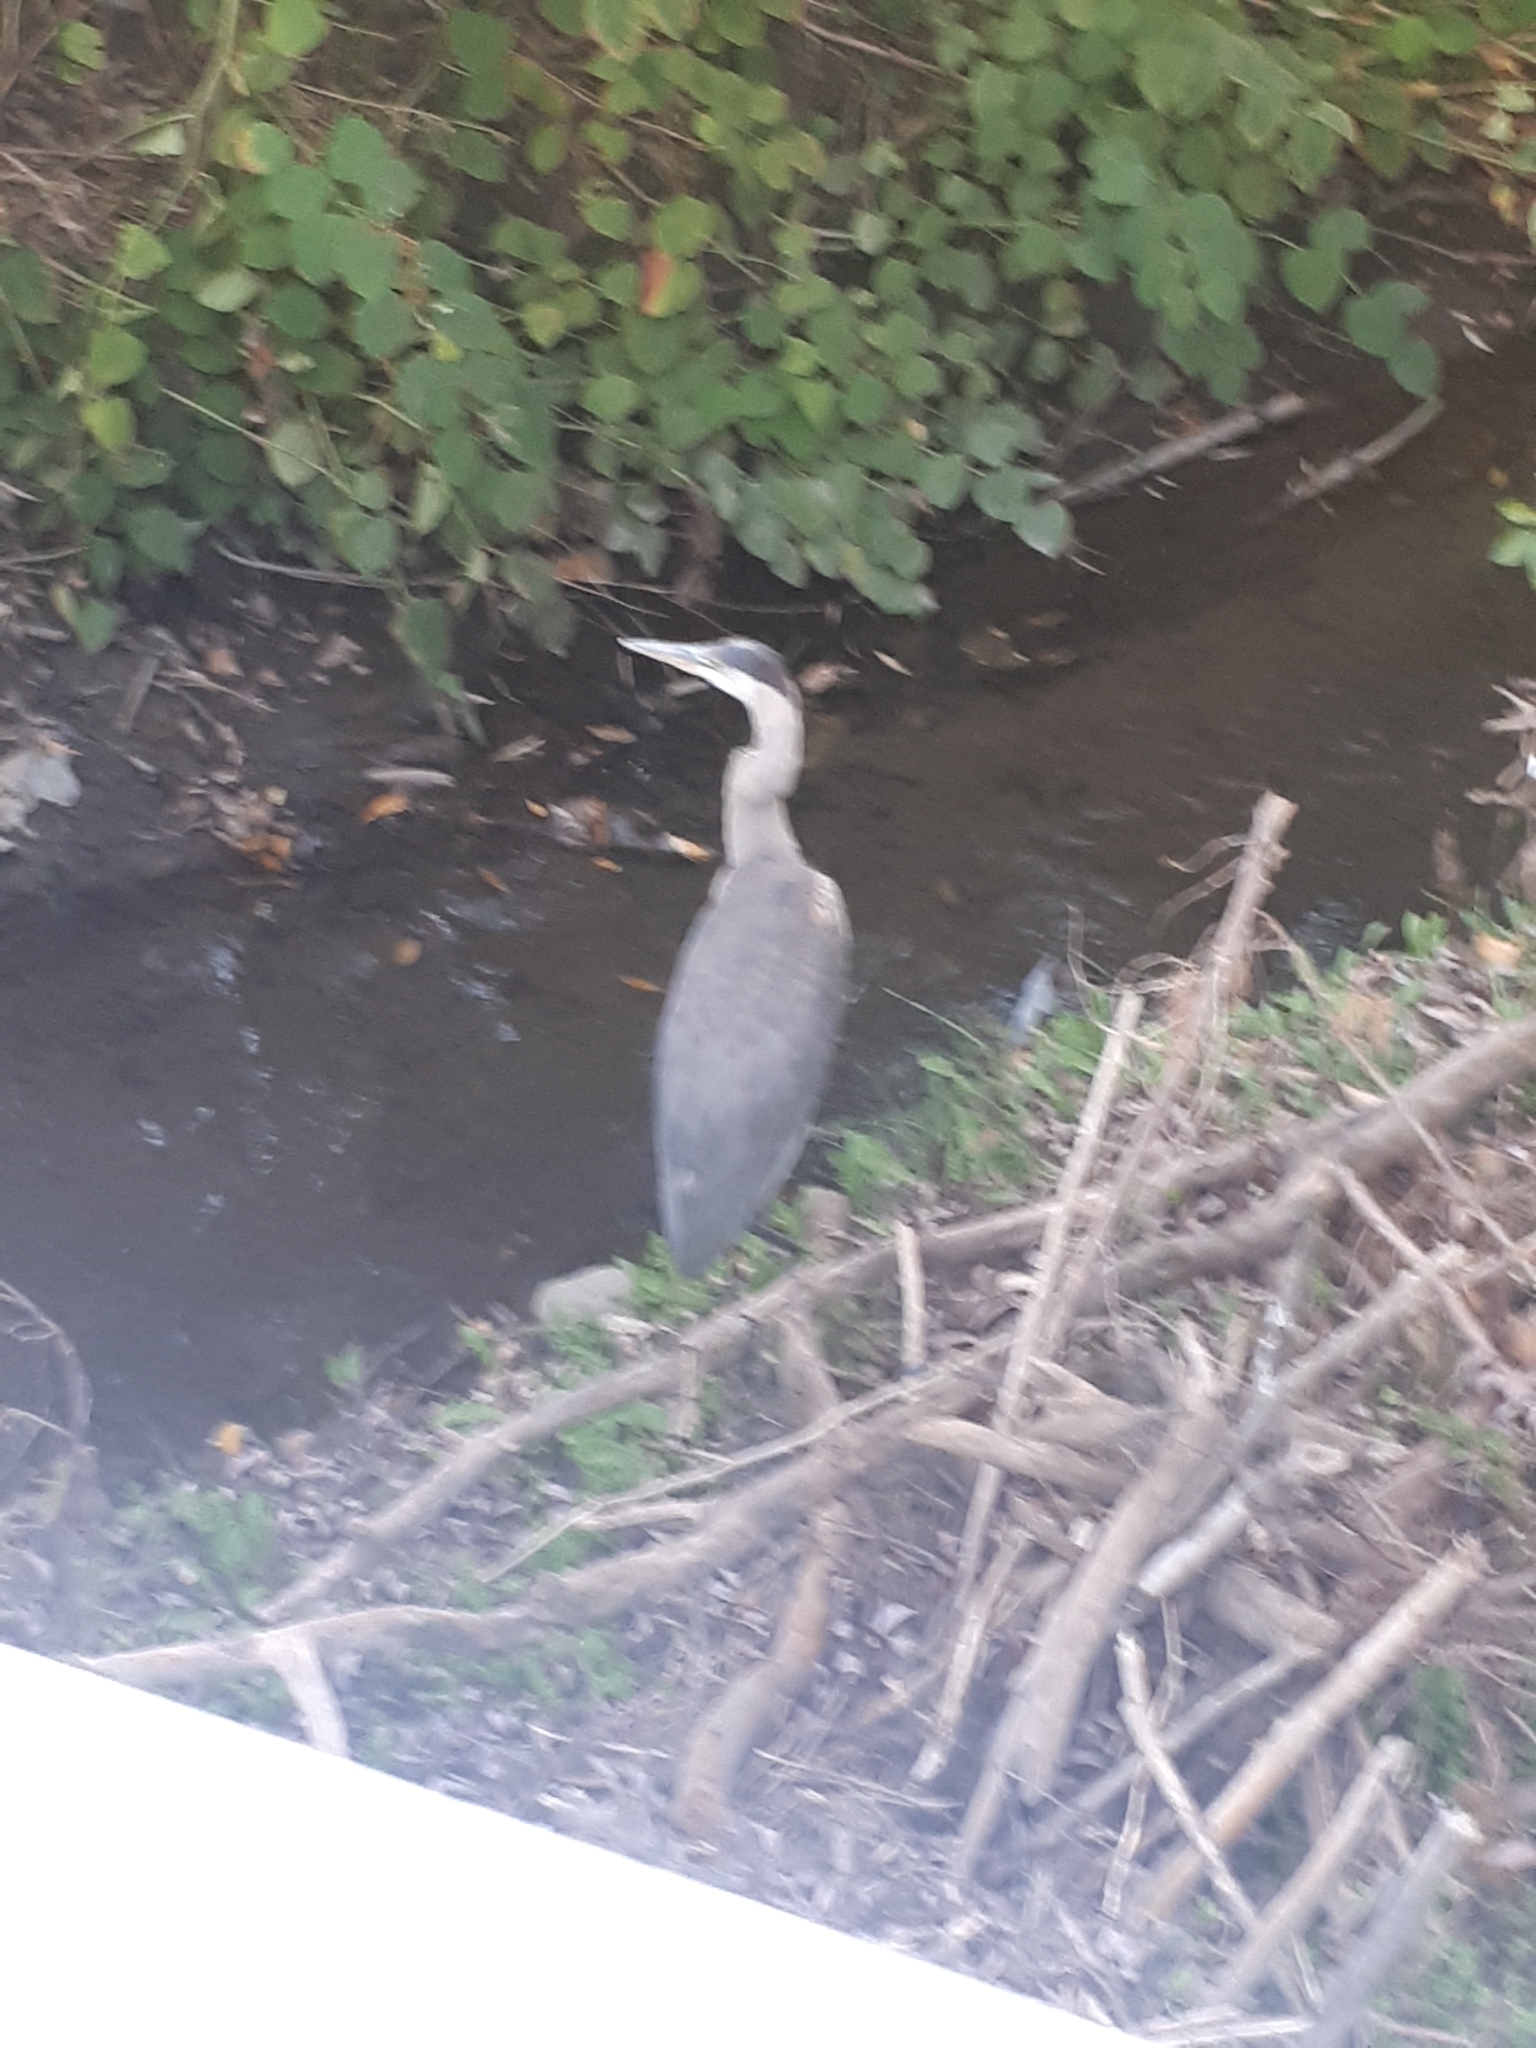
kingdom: Animalia
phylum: Chordata
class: Aves
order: Pelecaniformes
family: Ardeidae
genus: Ardea
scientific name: Ardea herodias
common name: Great blue heron
